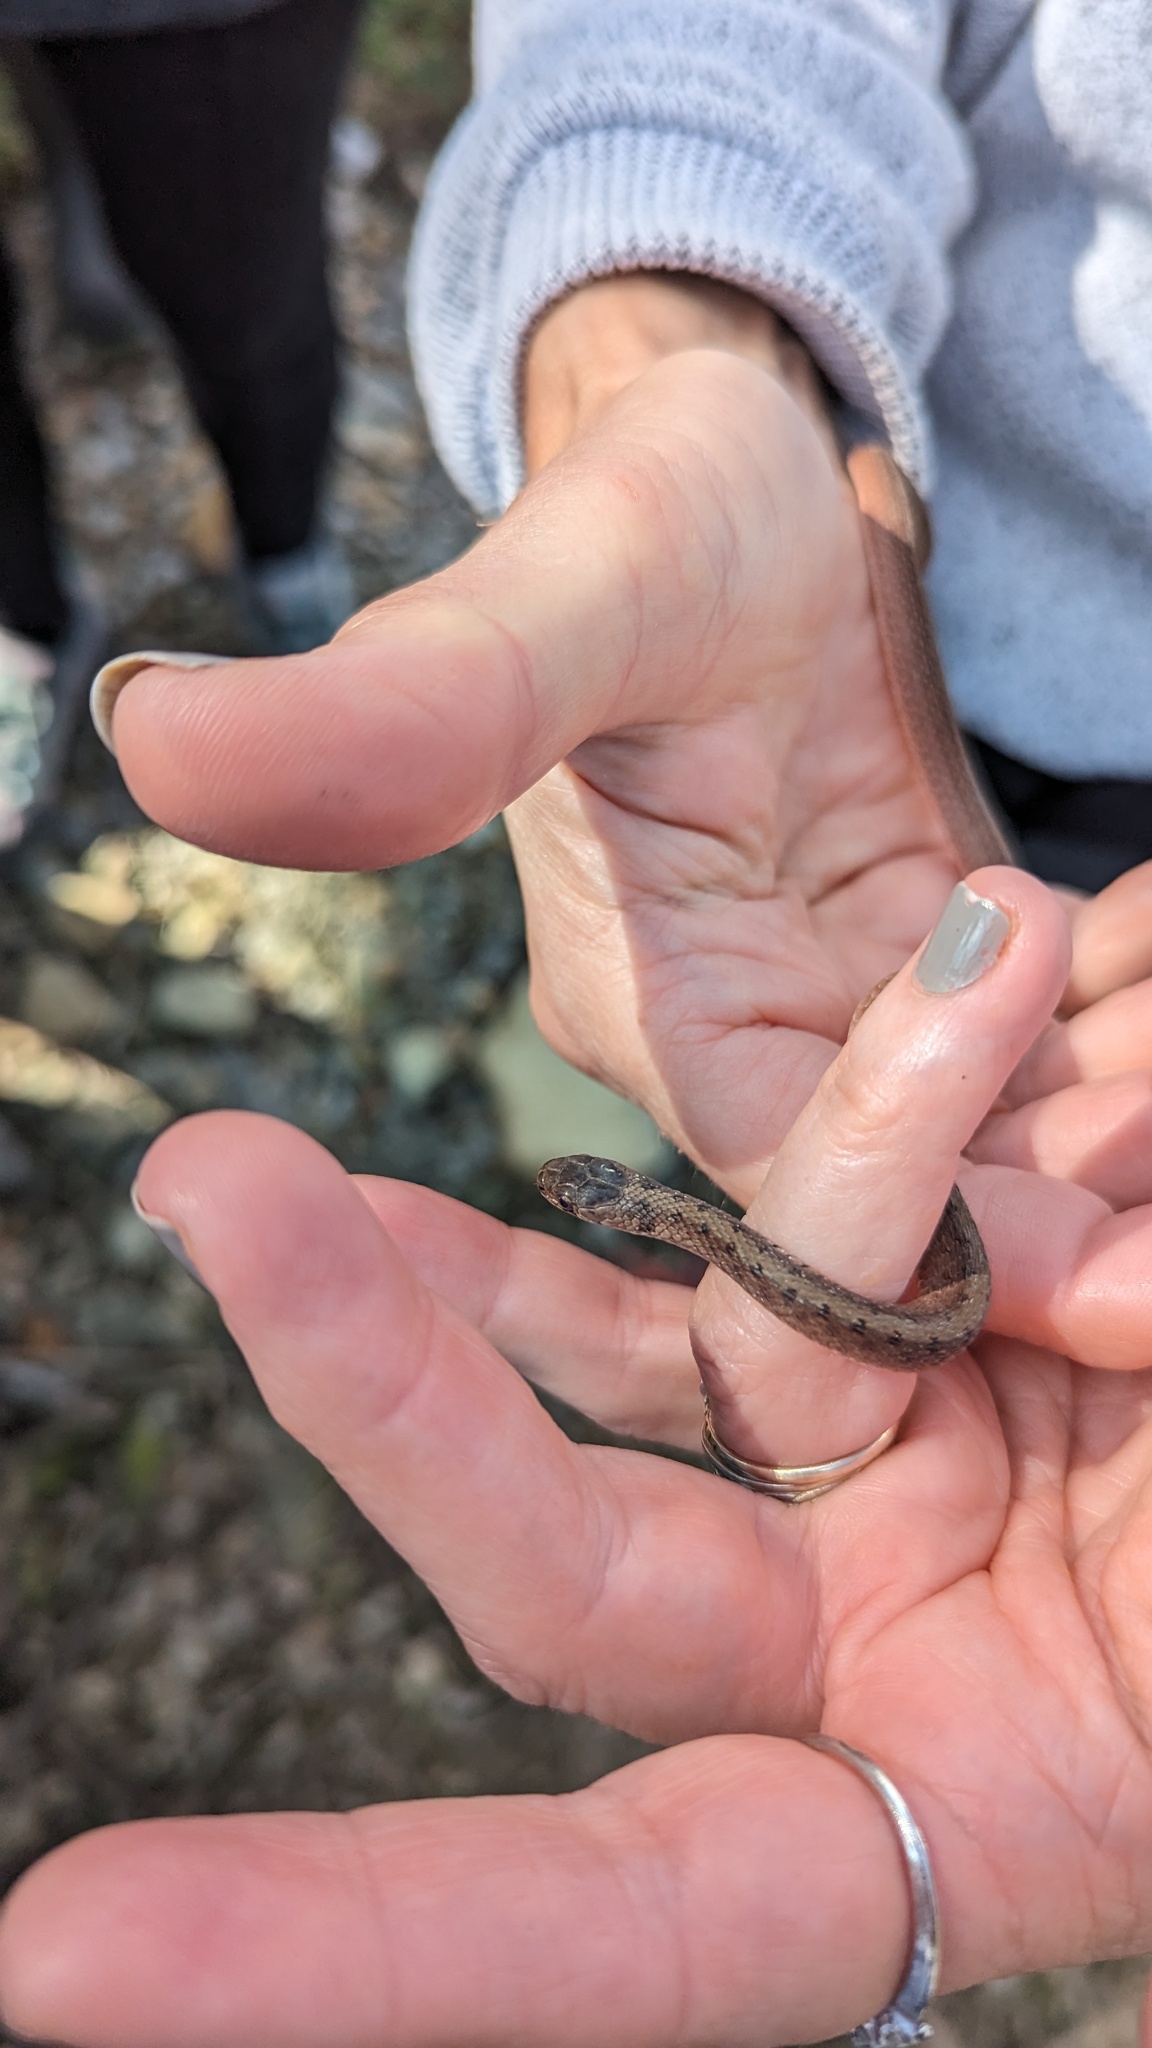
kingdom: Animalia
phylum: Chordata
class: Squamata
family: Colubridae
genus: Storeria
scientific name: Storeria dekayi
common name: (dekay’s) brown snake
